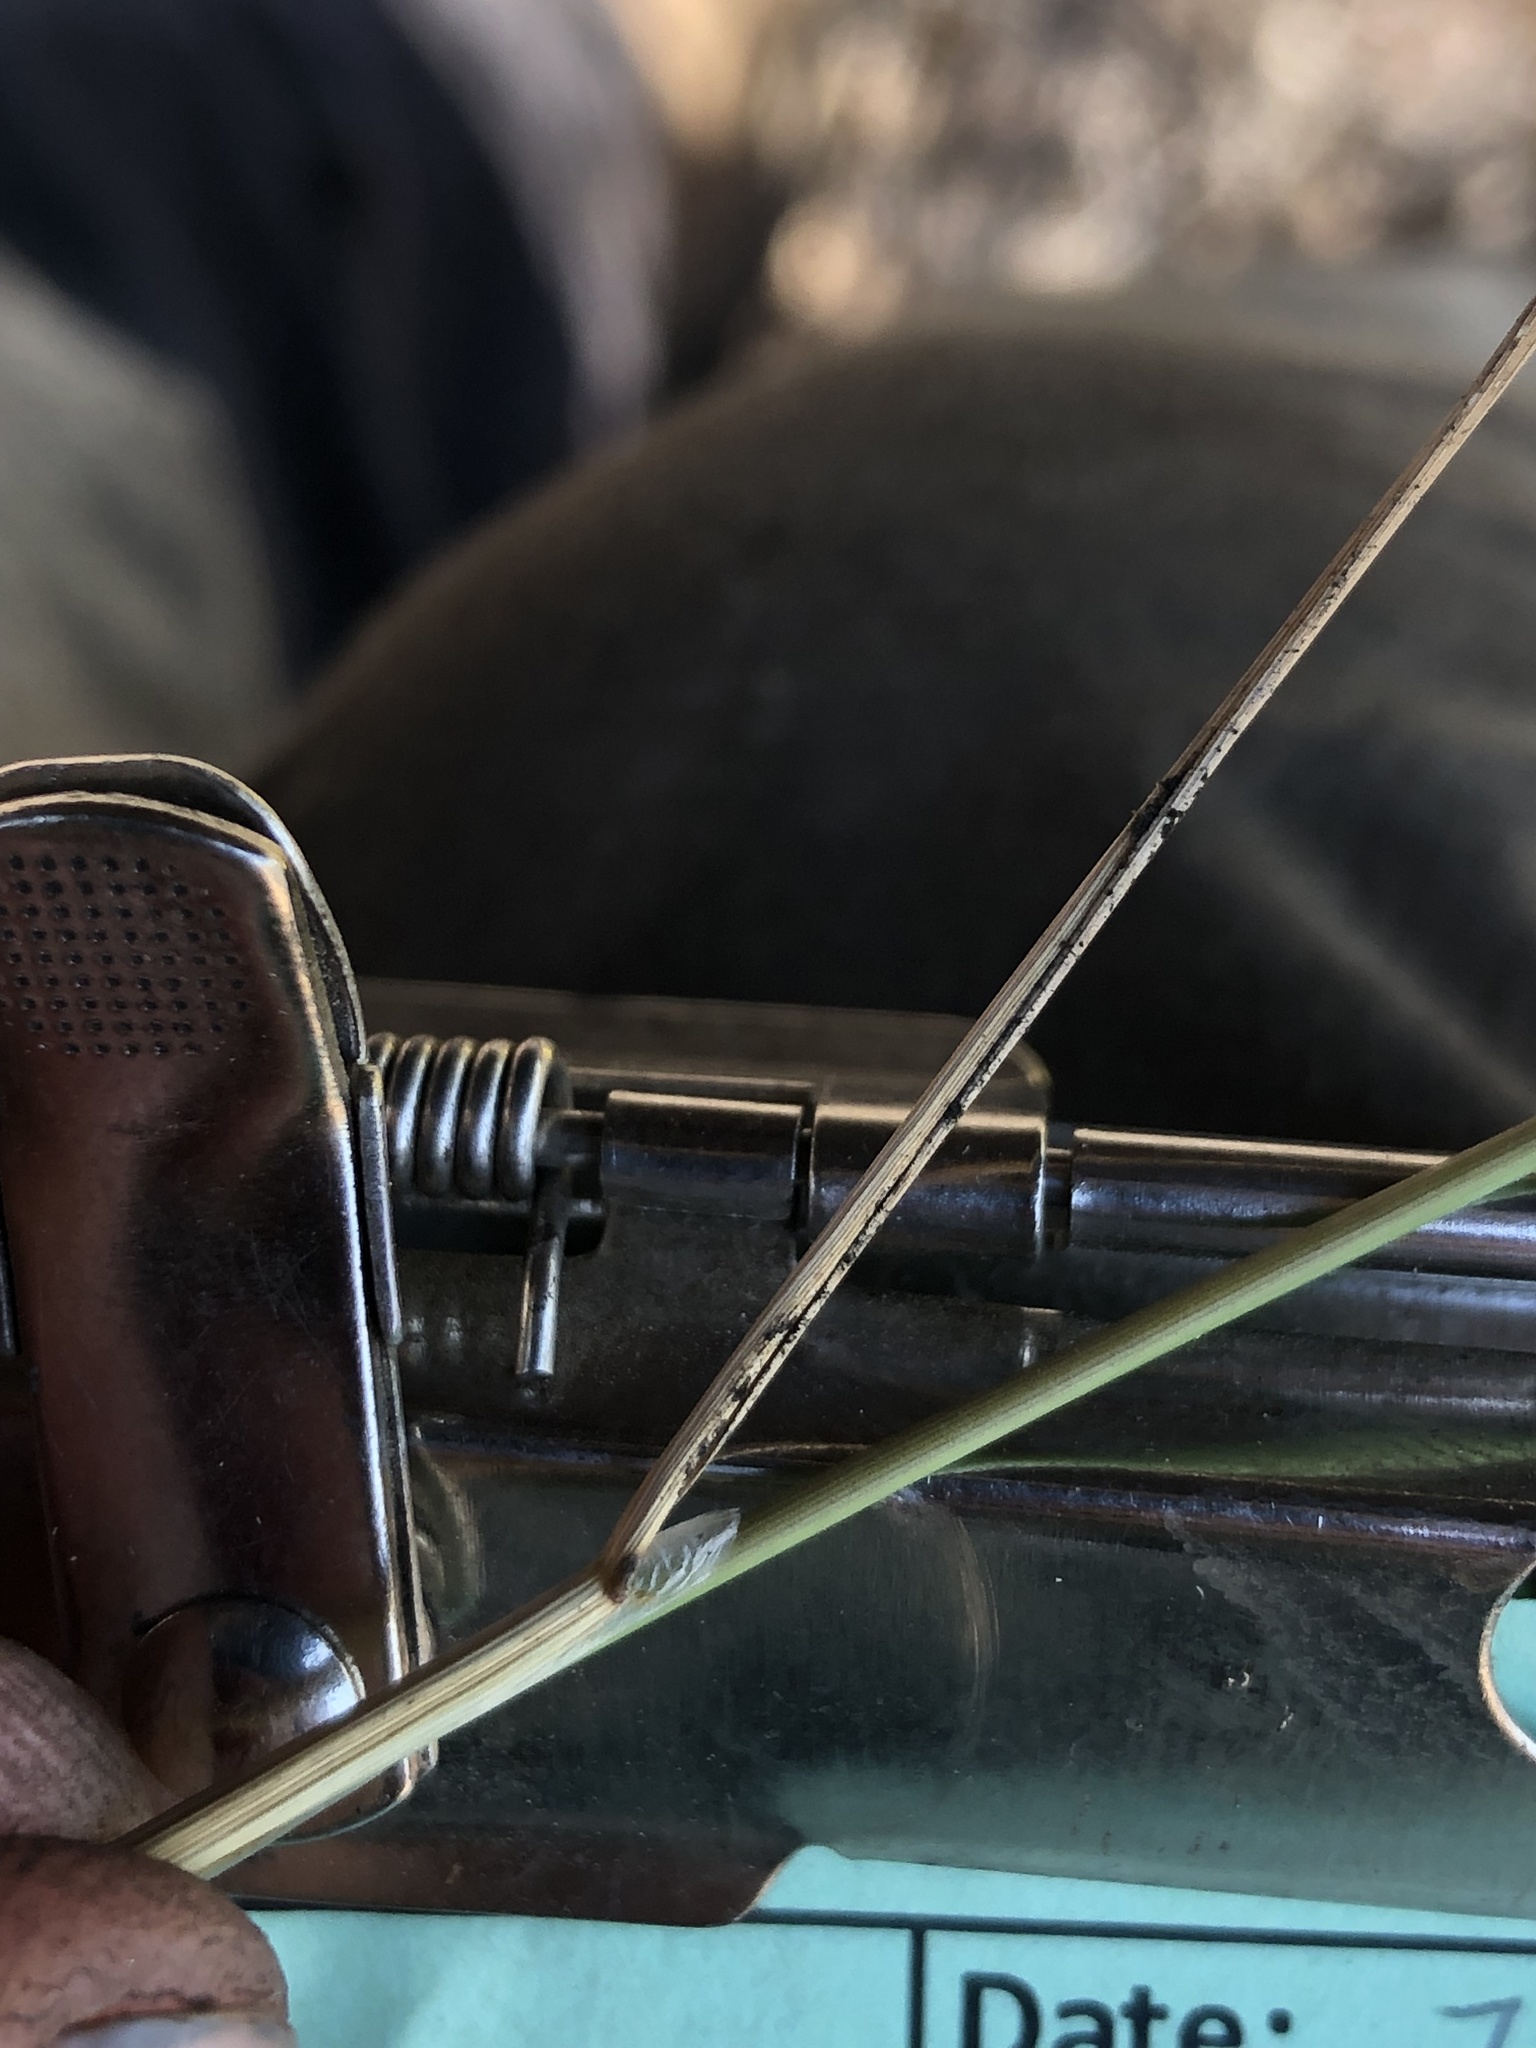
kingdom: Plantae
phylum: Tracheophyta
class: Liliopsida
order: Poales
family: Poaceae
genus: Oloptum
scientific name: Oloptum miliaceum
